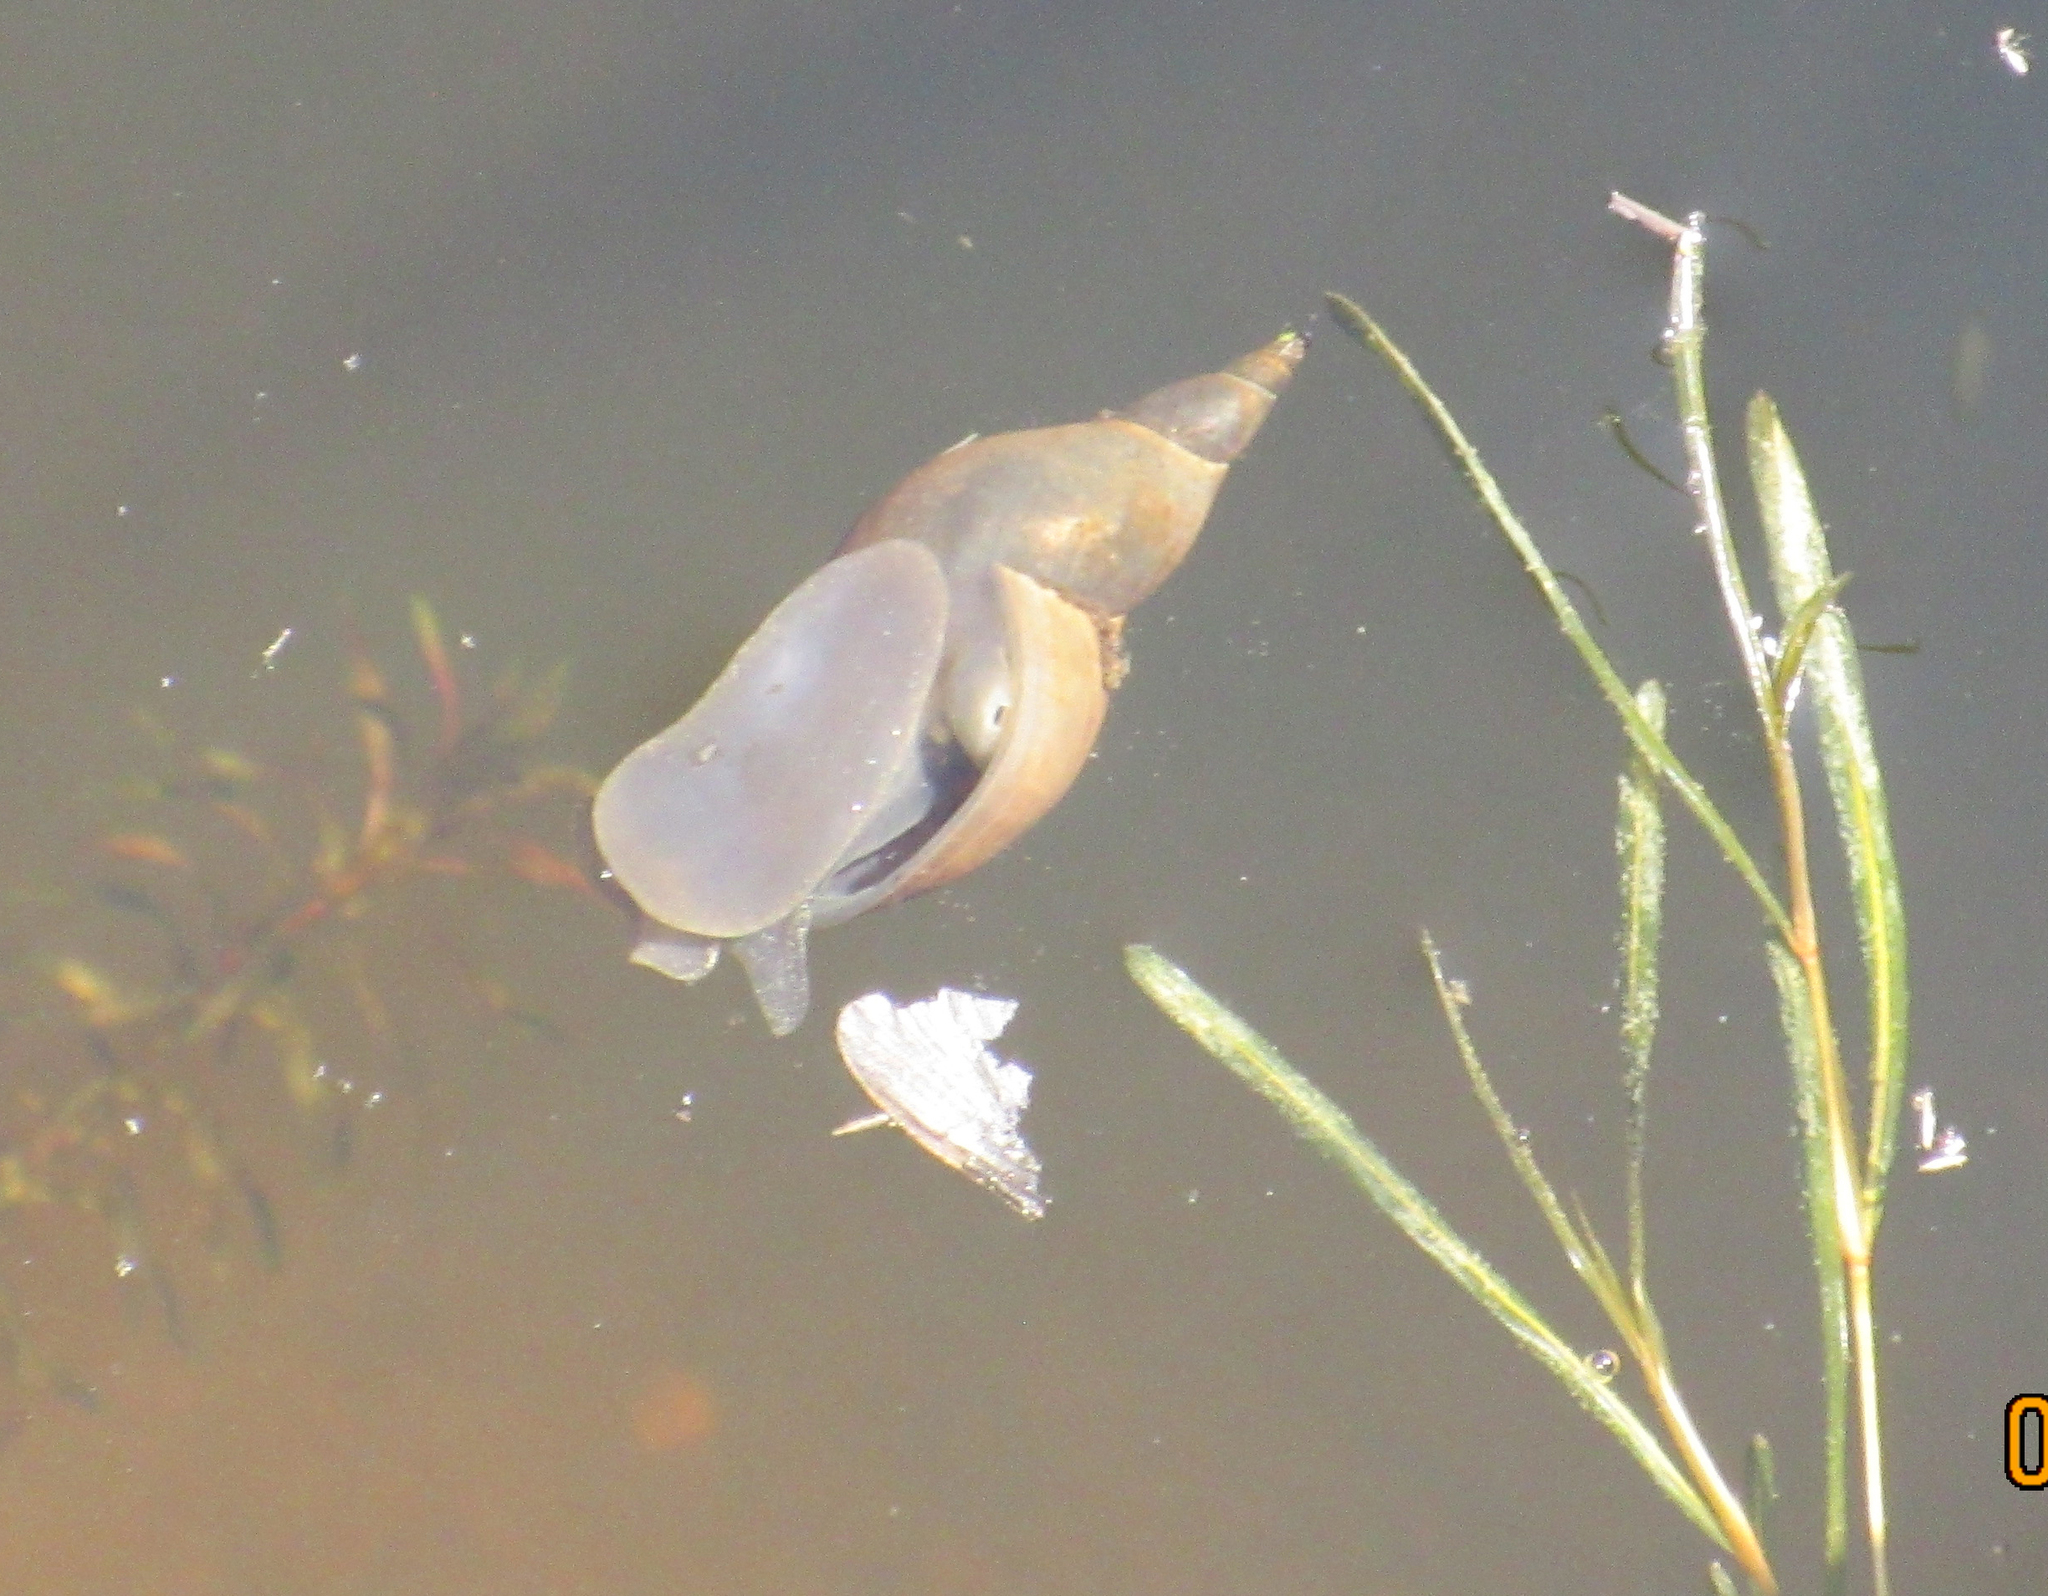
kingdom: Animalia
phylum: Mollusca
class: Gastropoda
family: Lymnaeidae
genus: Lymnaea
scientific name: Lymnaea stagnalis
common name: Great pond snail
